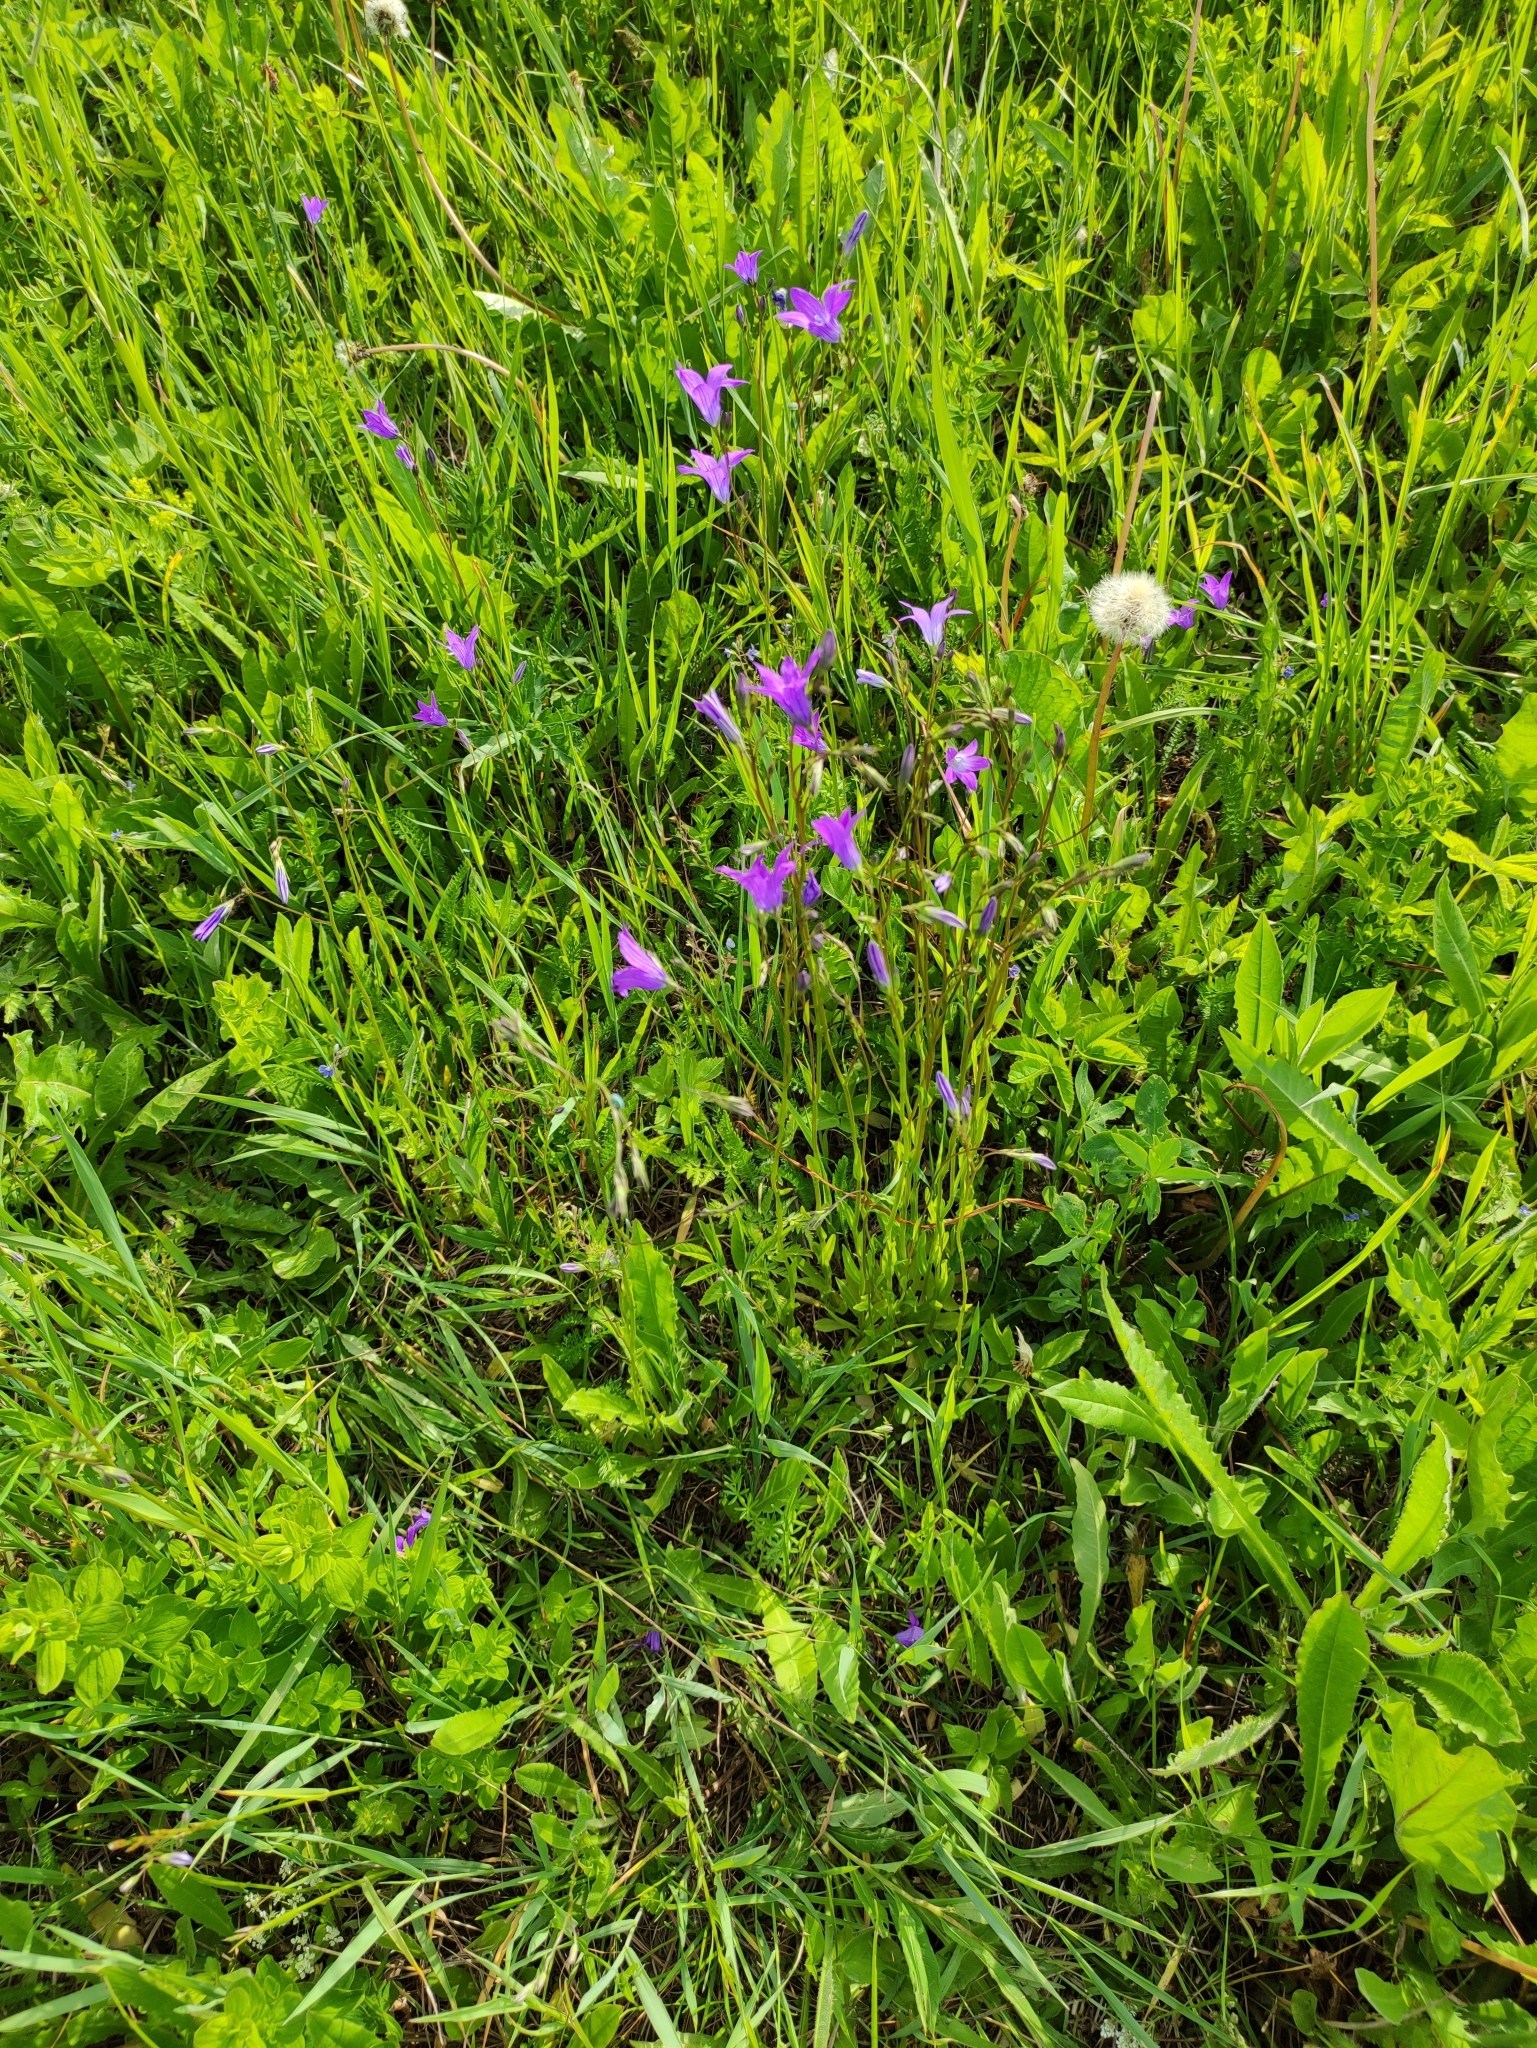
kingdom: Plantae
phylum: Tracheophyta
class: Magnoliopsida
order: Asterales
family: Campanulaceae
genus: Campanula
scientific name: Campanula patula
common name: Spreading bellflower
